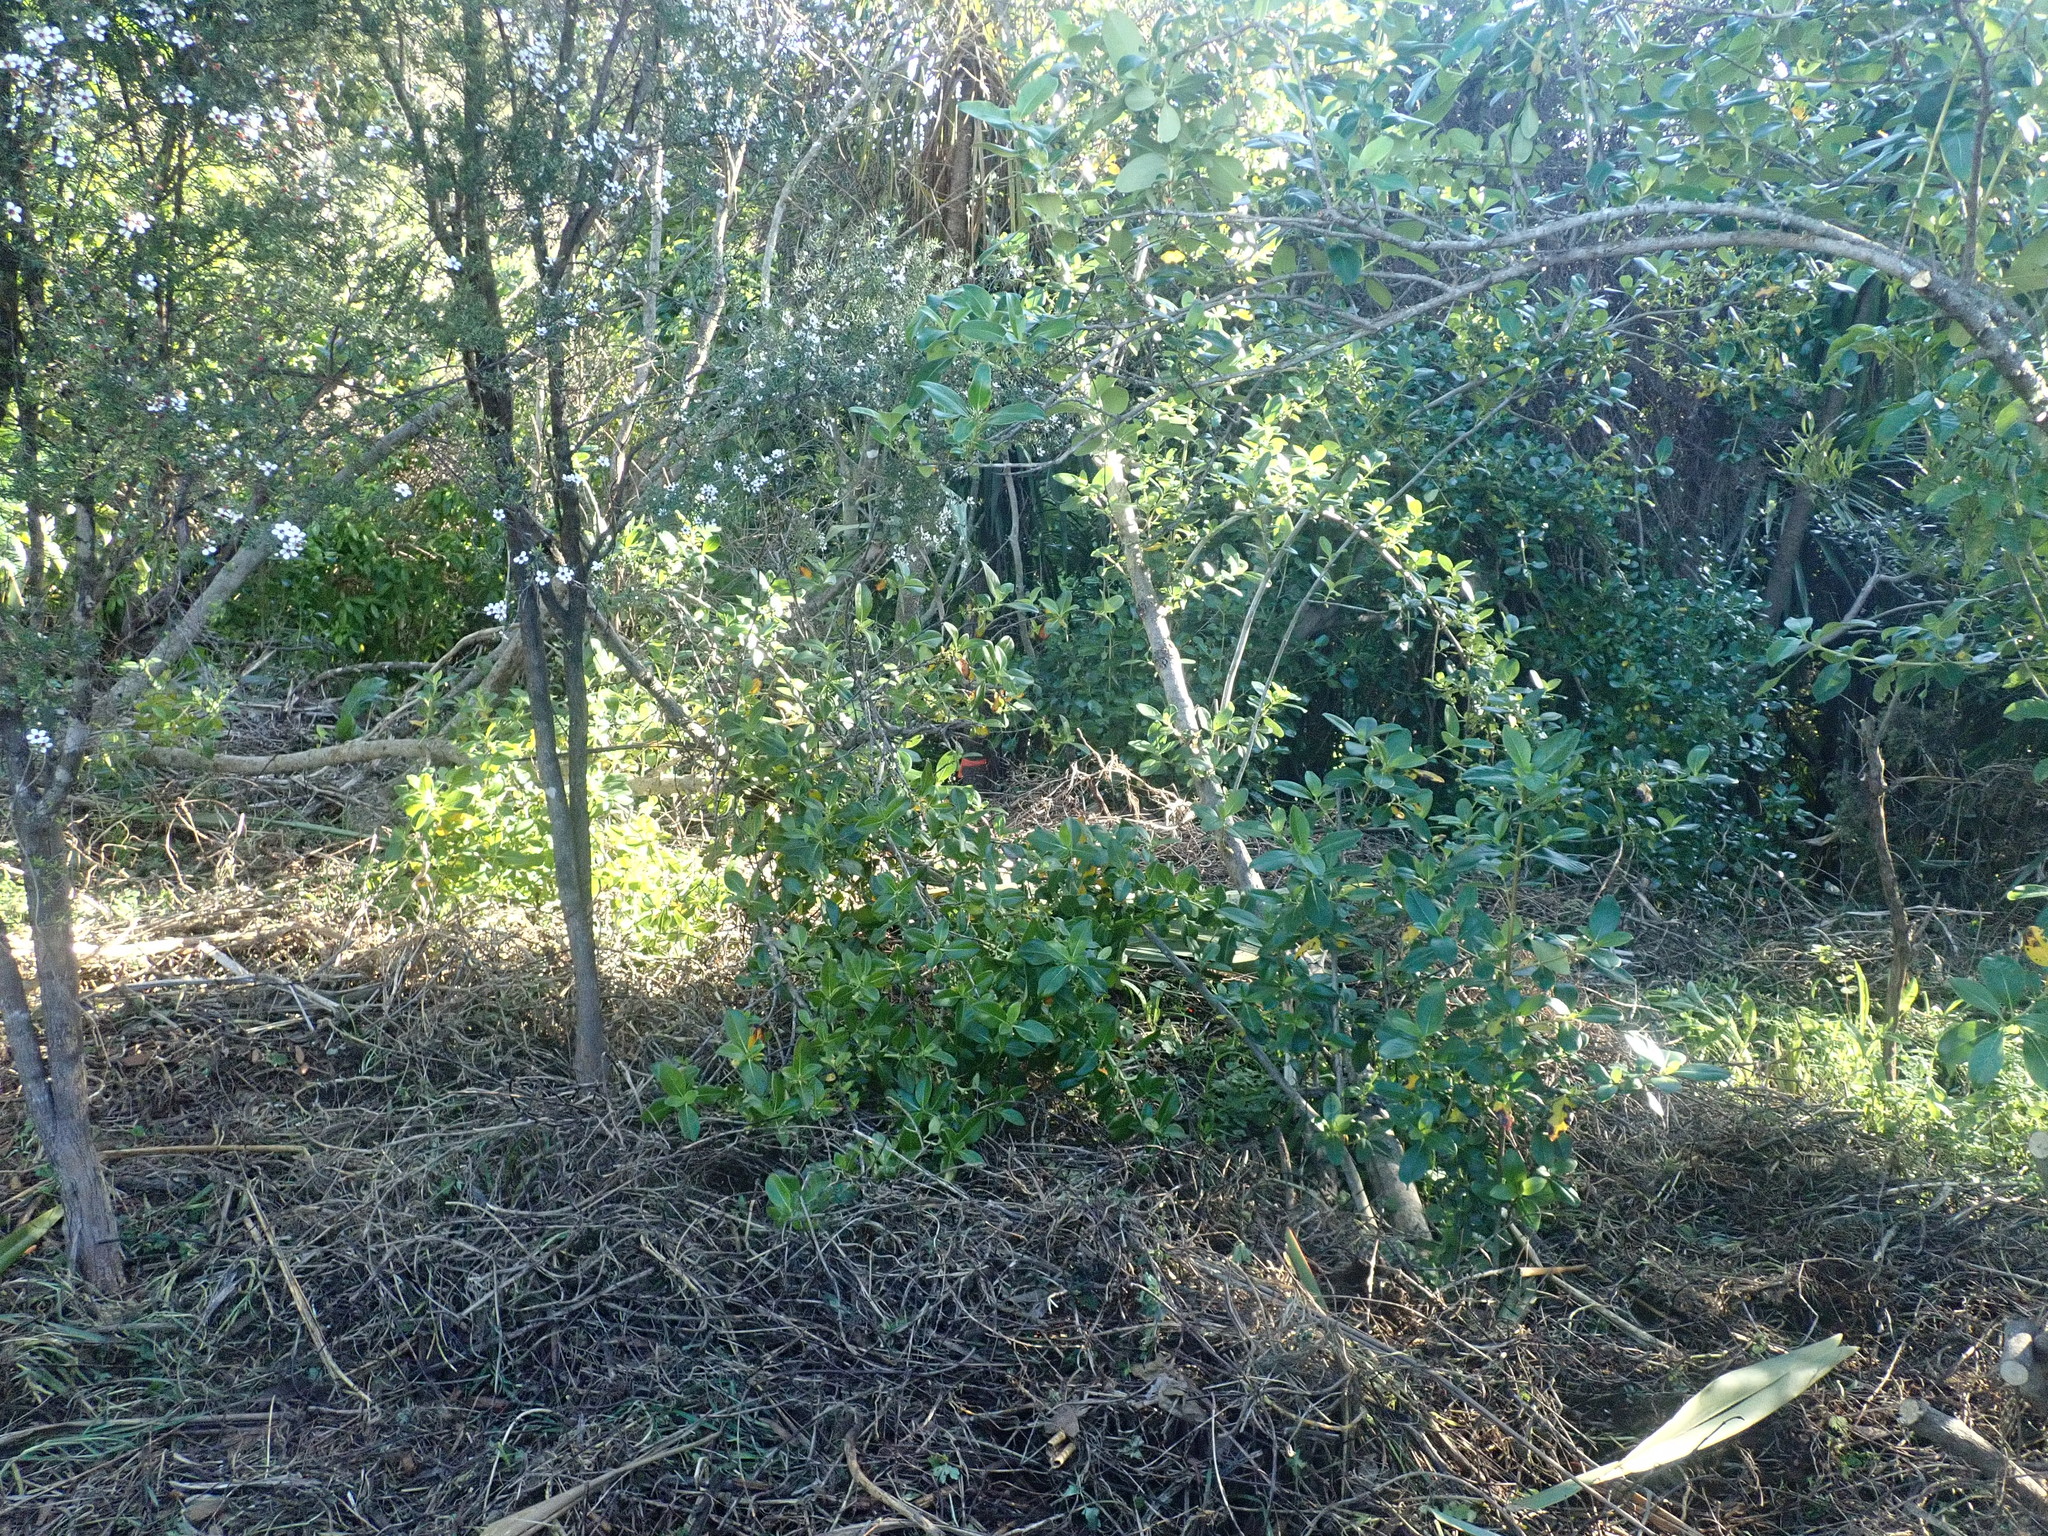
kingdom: Plantae
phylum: Tracheophyta
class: Magnoliopsida
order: Gentianales
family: Rubiaceae
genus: Coprosma
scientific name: Coprosma robusta
